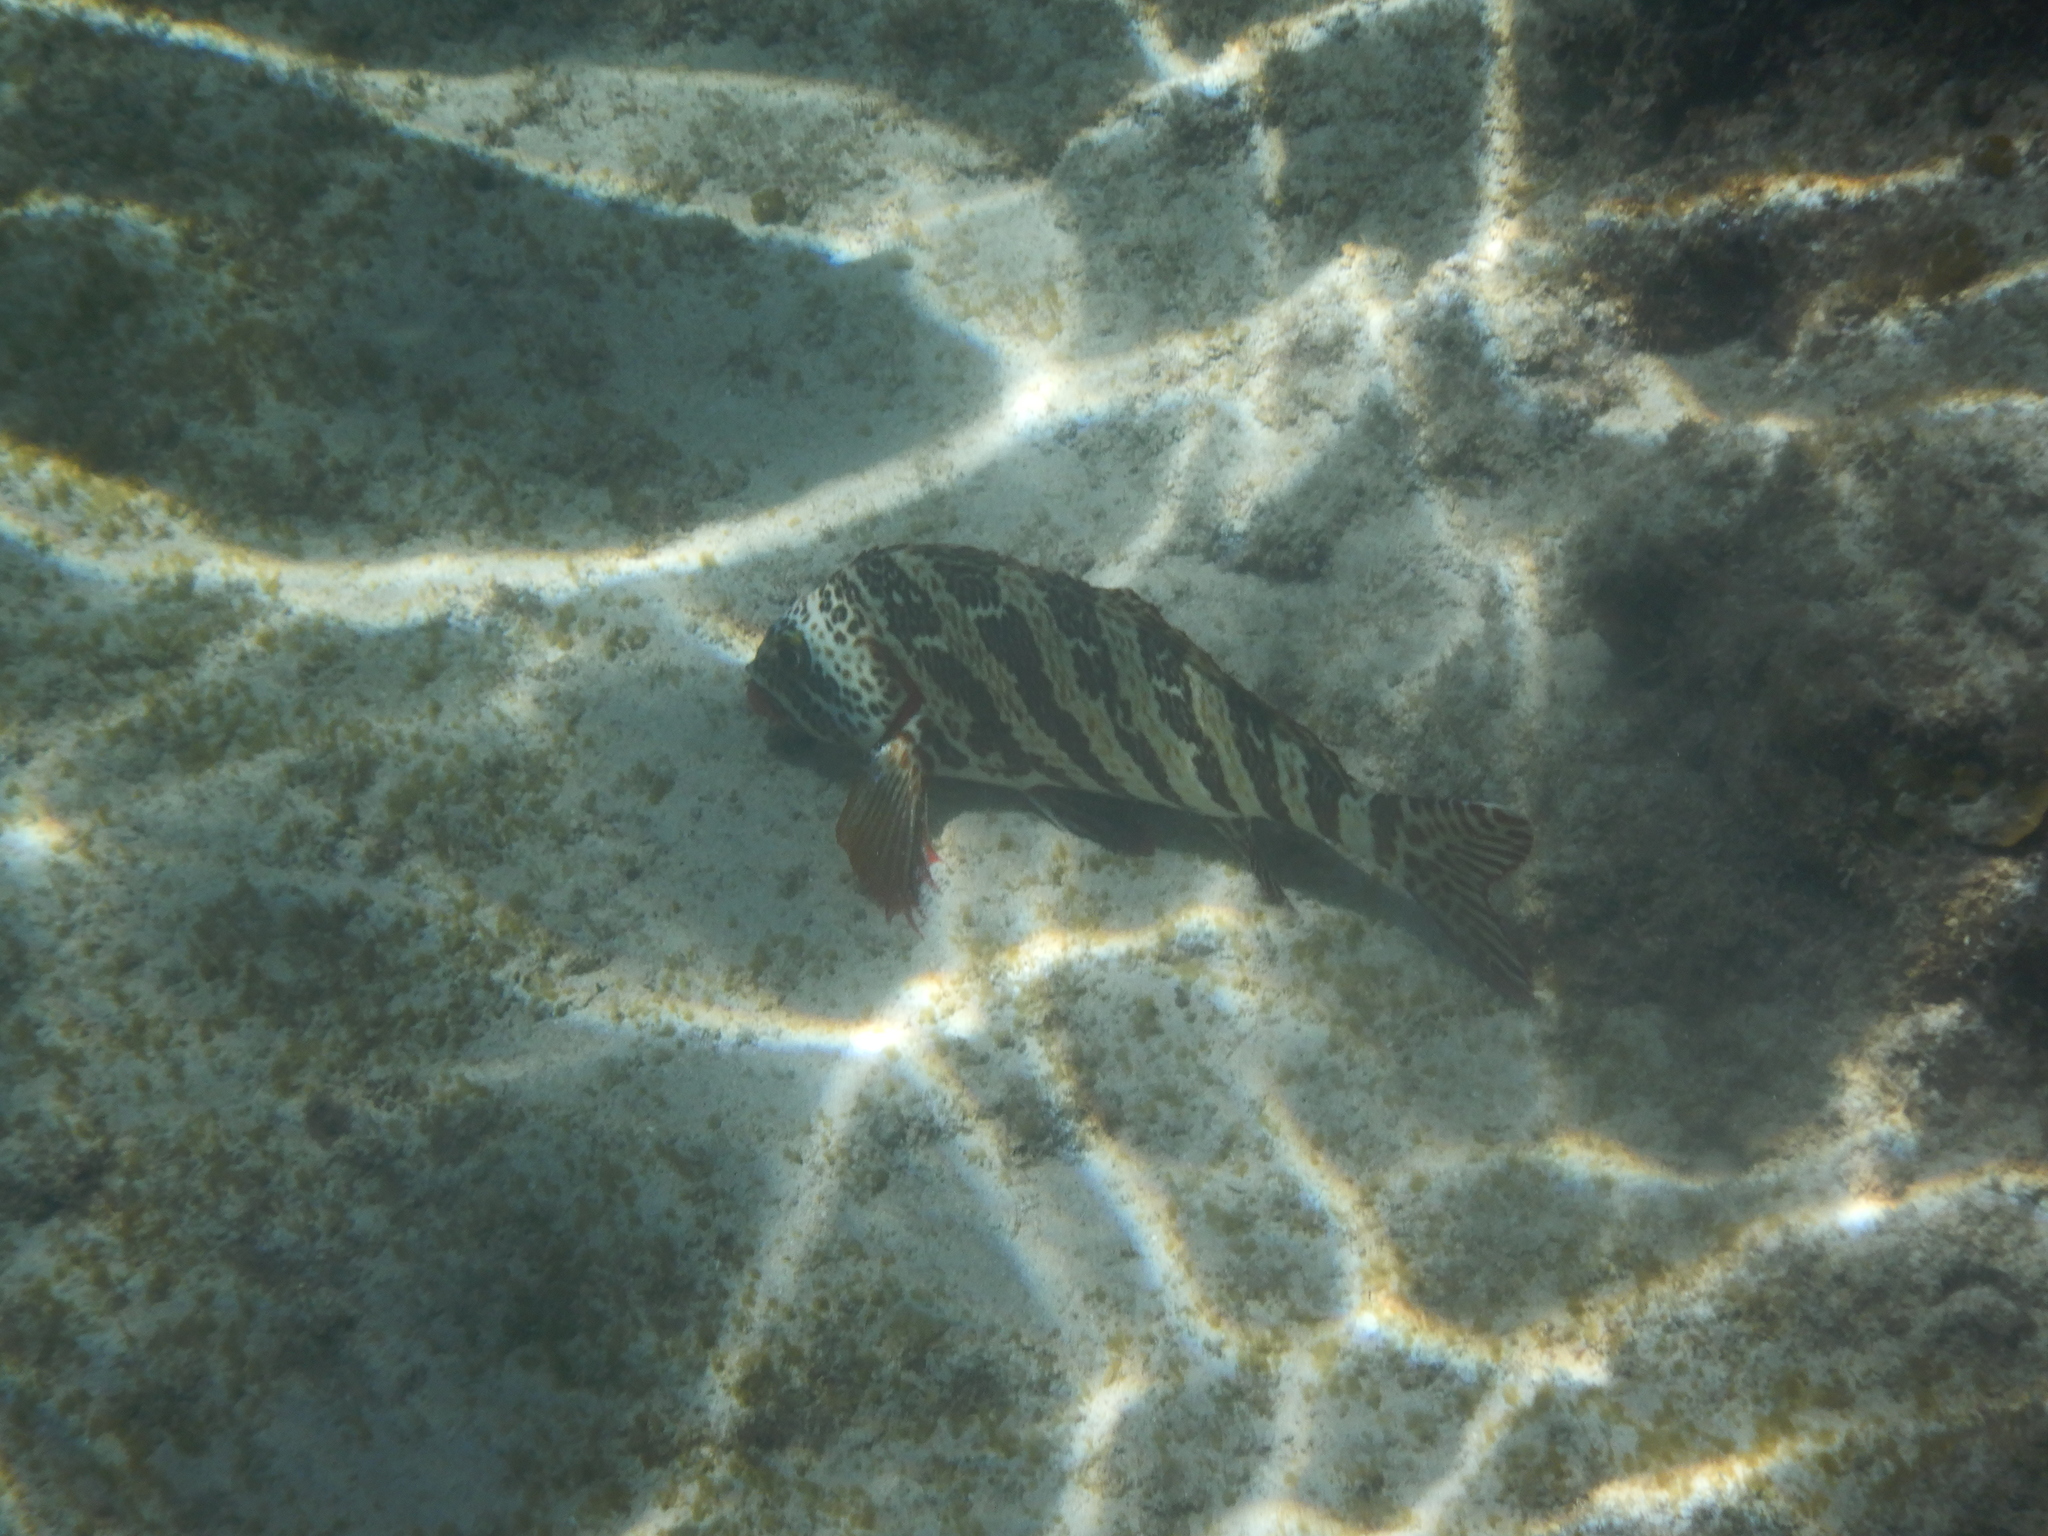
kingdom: Animalia
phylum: Chordata
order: Perciformes
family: Cheilodactylidae
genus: Cheilodactylus
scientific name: Cheilodactylus rubrolabiatus
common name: Redlip morwong
